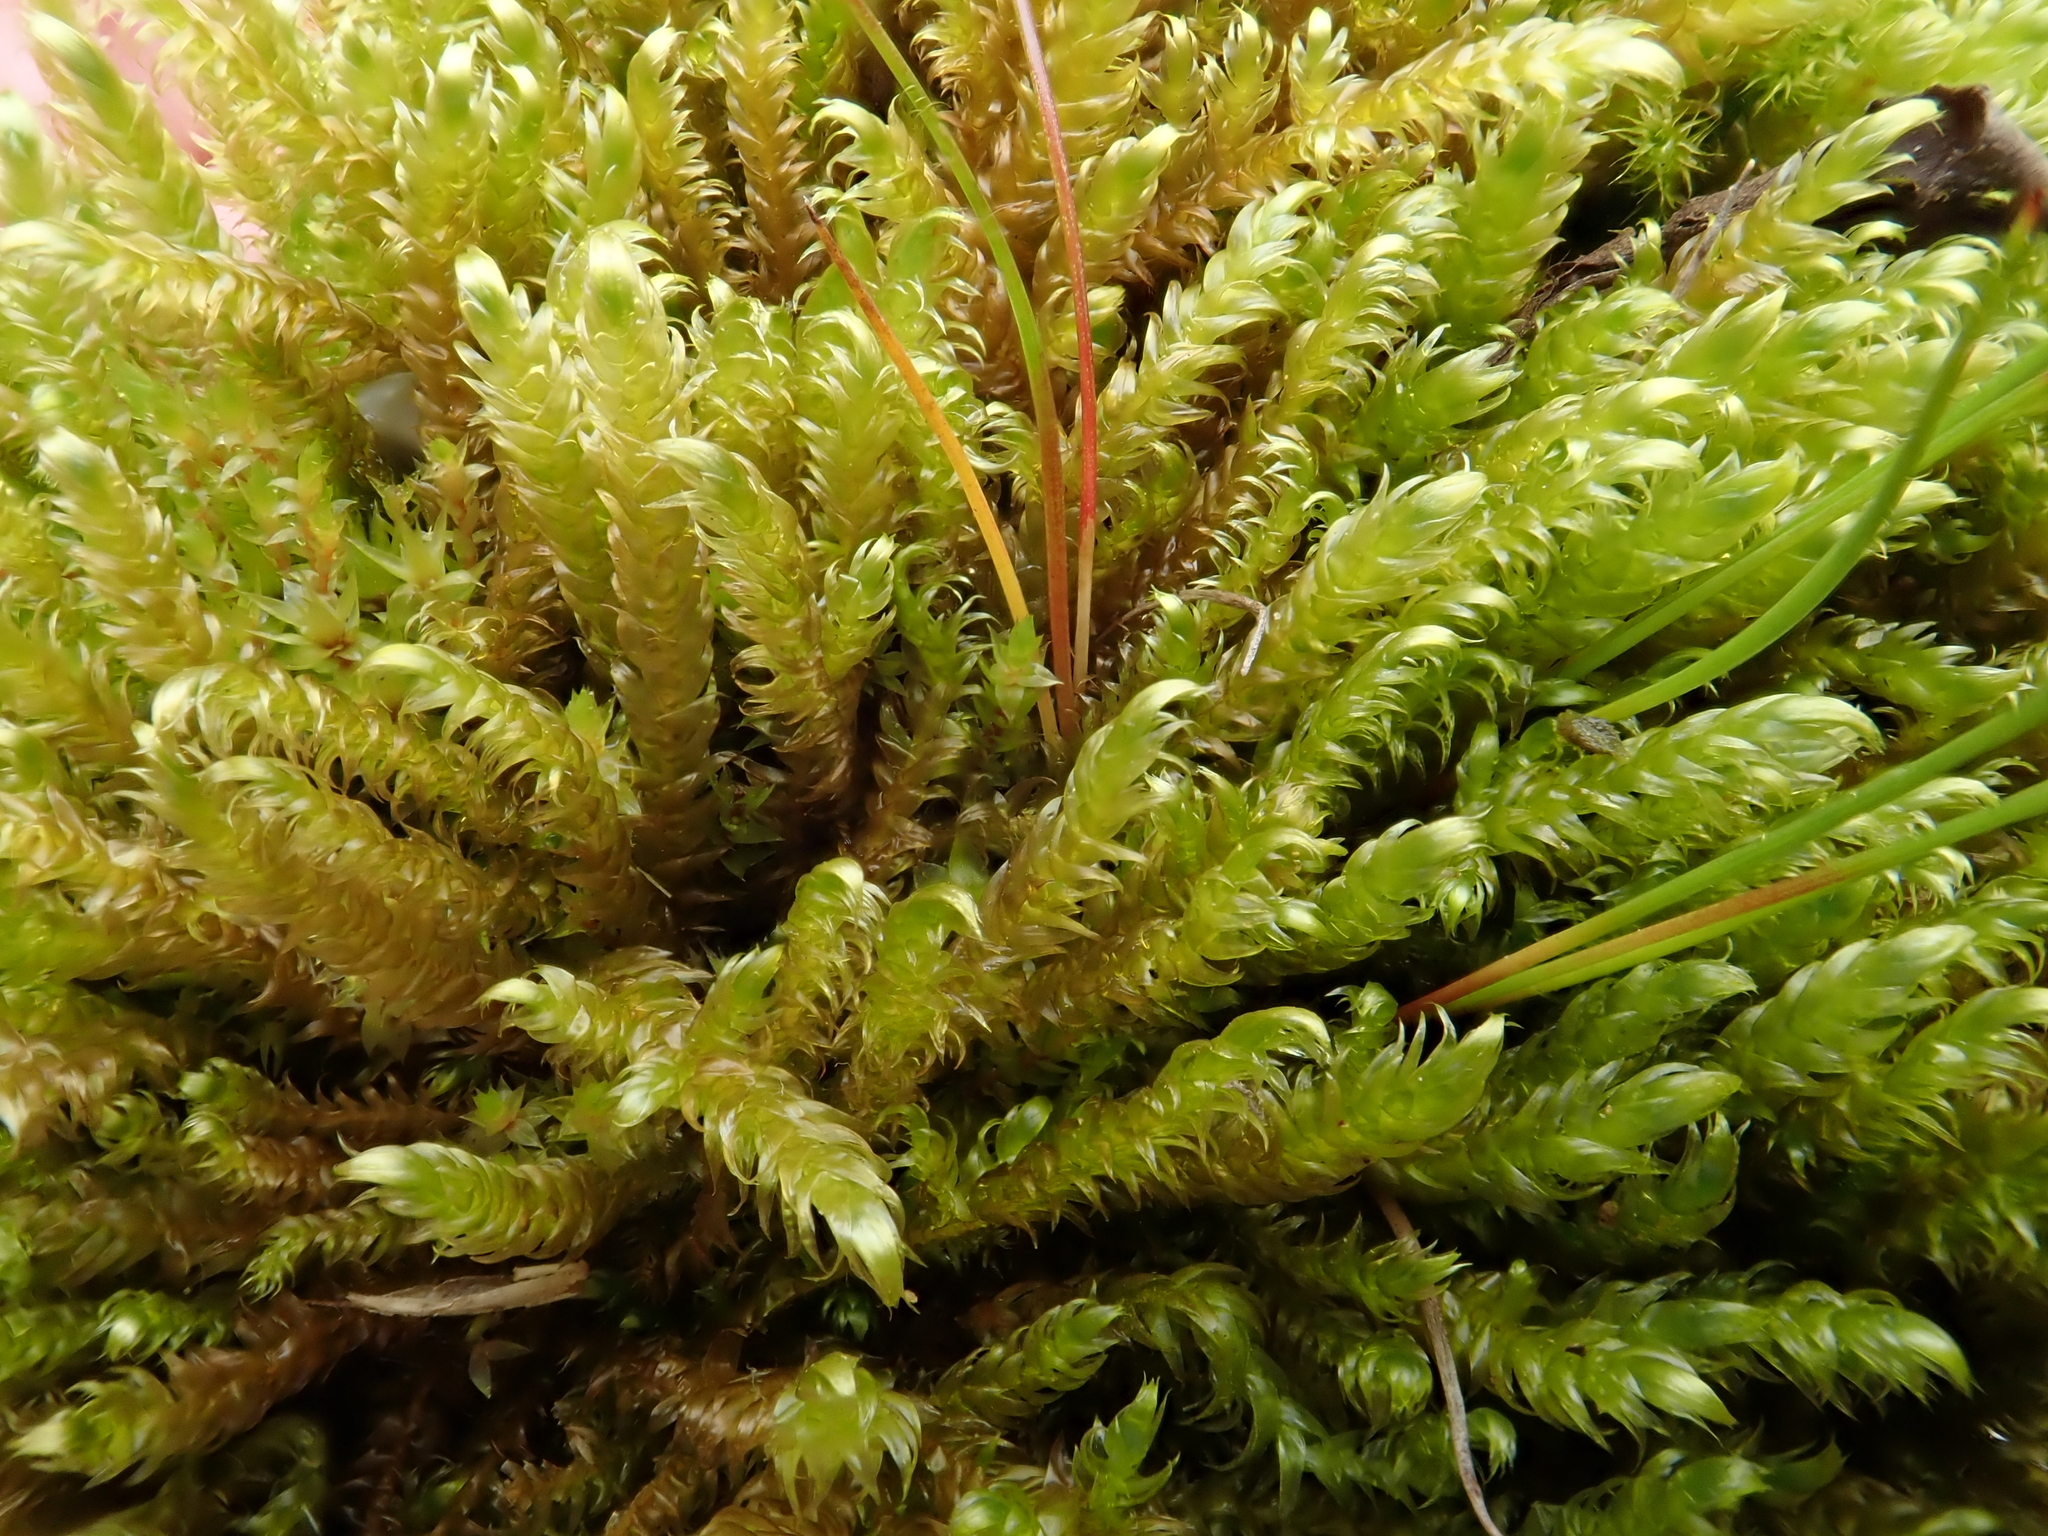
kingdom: Plantae
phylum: Bryophyta
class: Bryopsida
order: Hypnales
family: Pylaisiaceae
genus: Calliergonella
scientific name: Calliergonella lindbergii
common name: Lindberg's plait-moss
